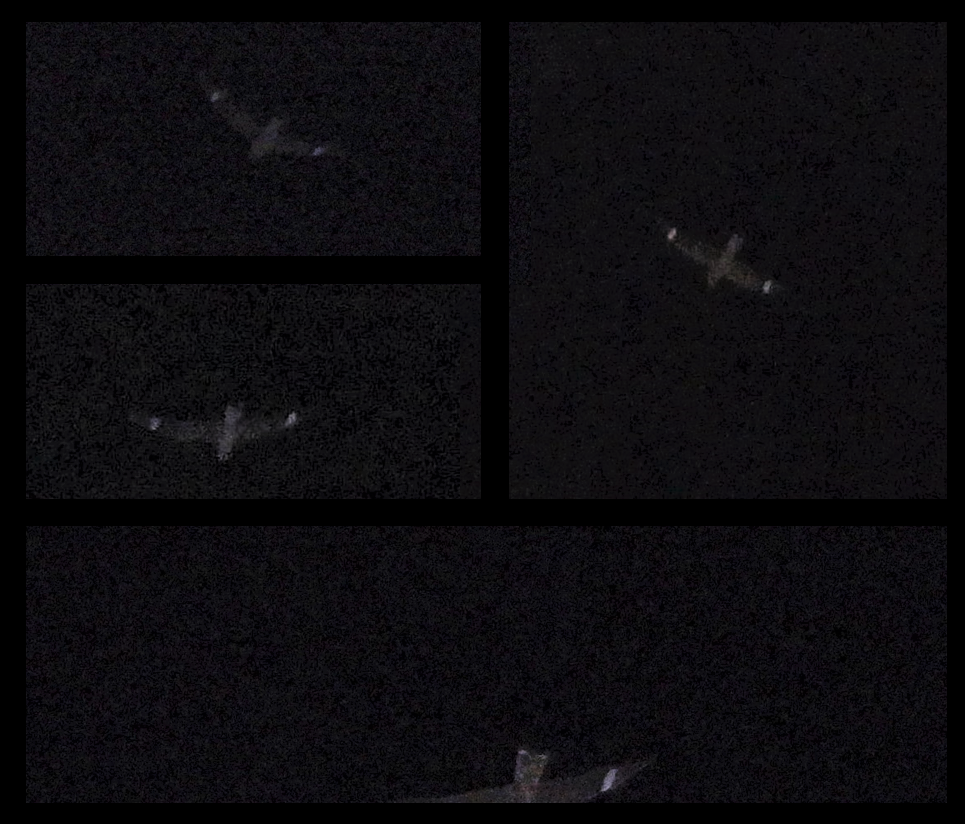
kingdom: Animalia
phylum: Chordata
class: Aves
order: Caprimulgiformes
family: Caprimulgidae
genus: Chordeiles
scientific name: Chordeiles gundlachii
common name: Antillean nighthawk
